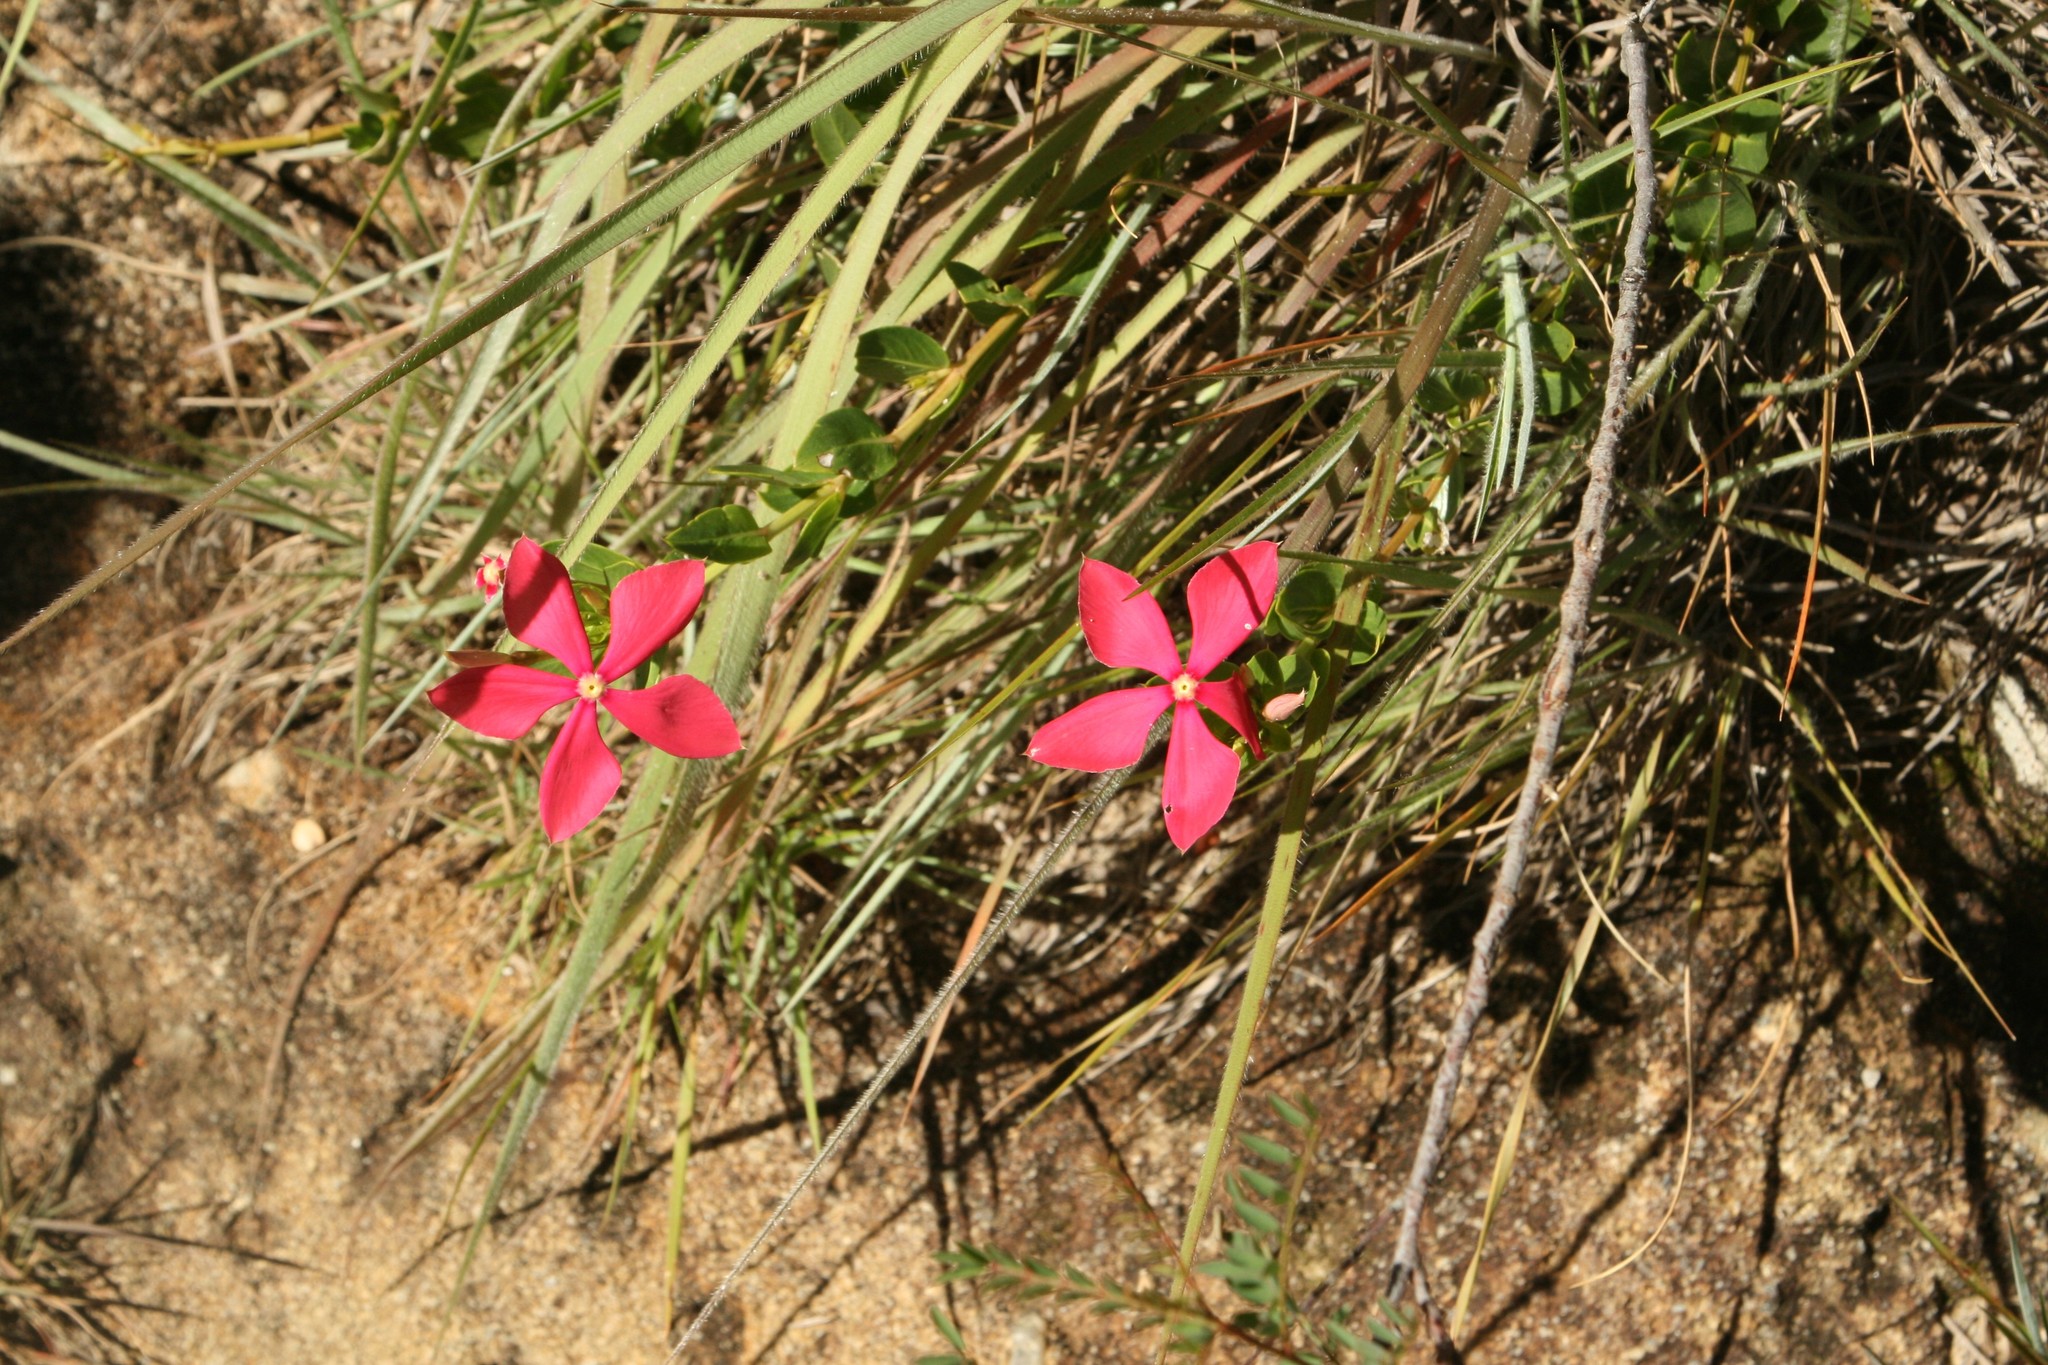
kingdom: Plantae
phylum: Tracheophyta
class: Magnoliopsida
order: Gentianales
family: Apocynaceae
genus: Catharanthus
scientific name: Catharanthus ovalis
